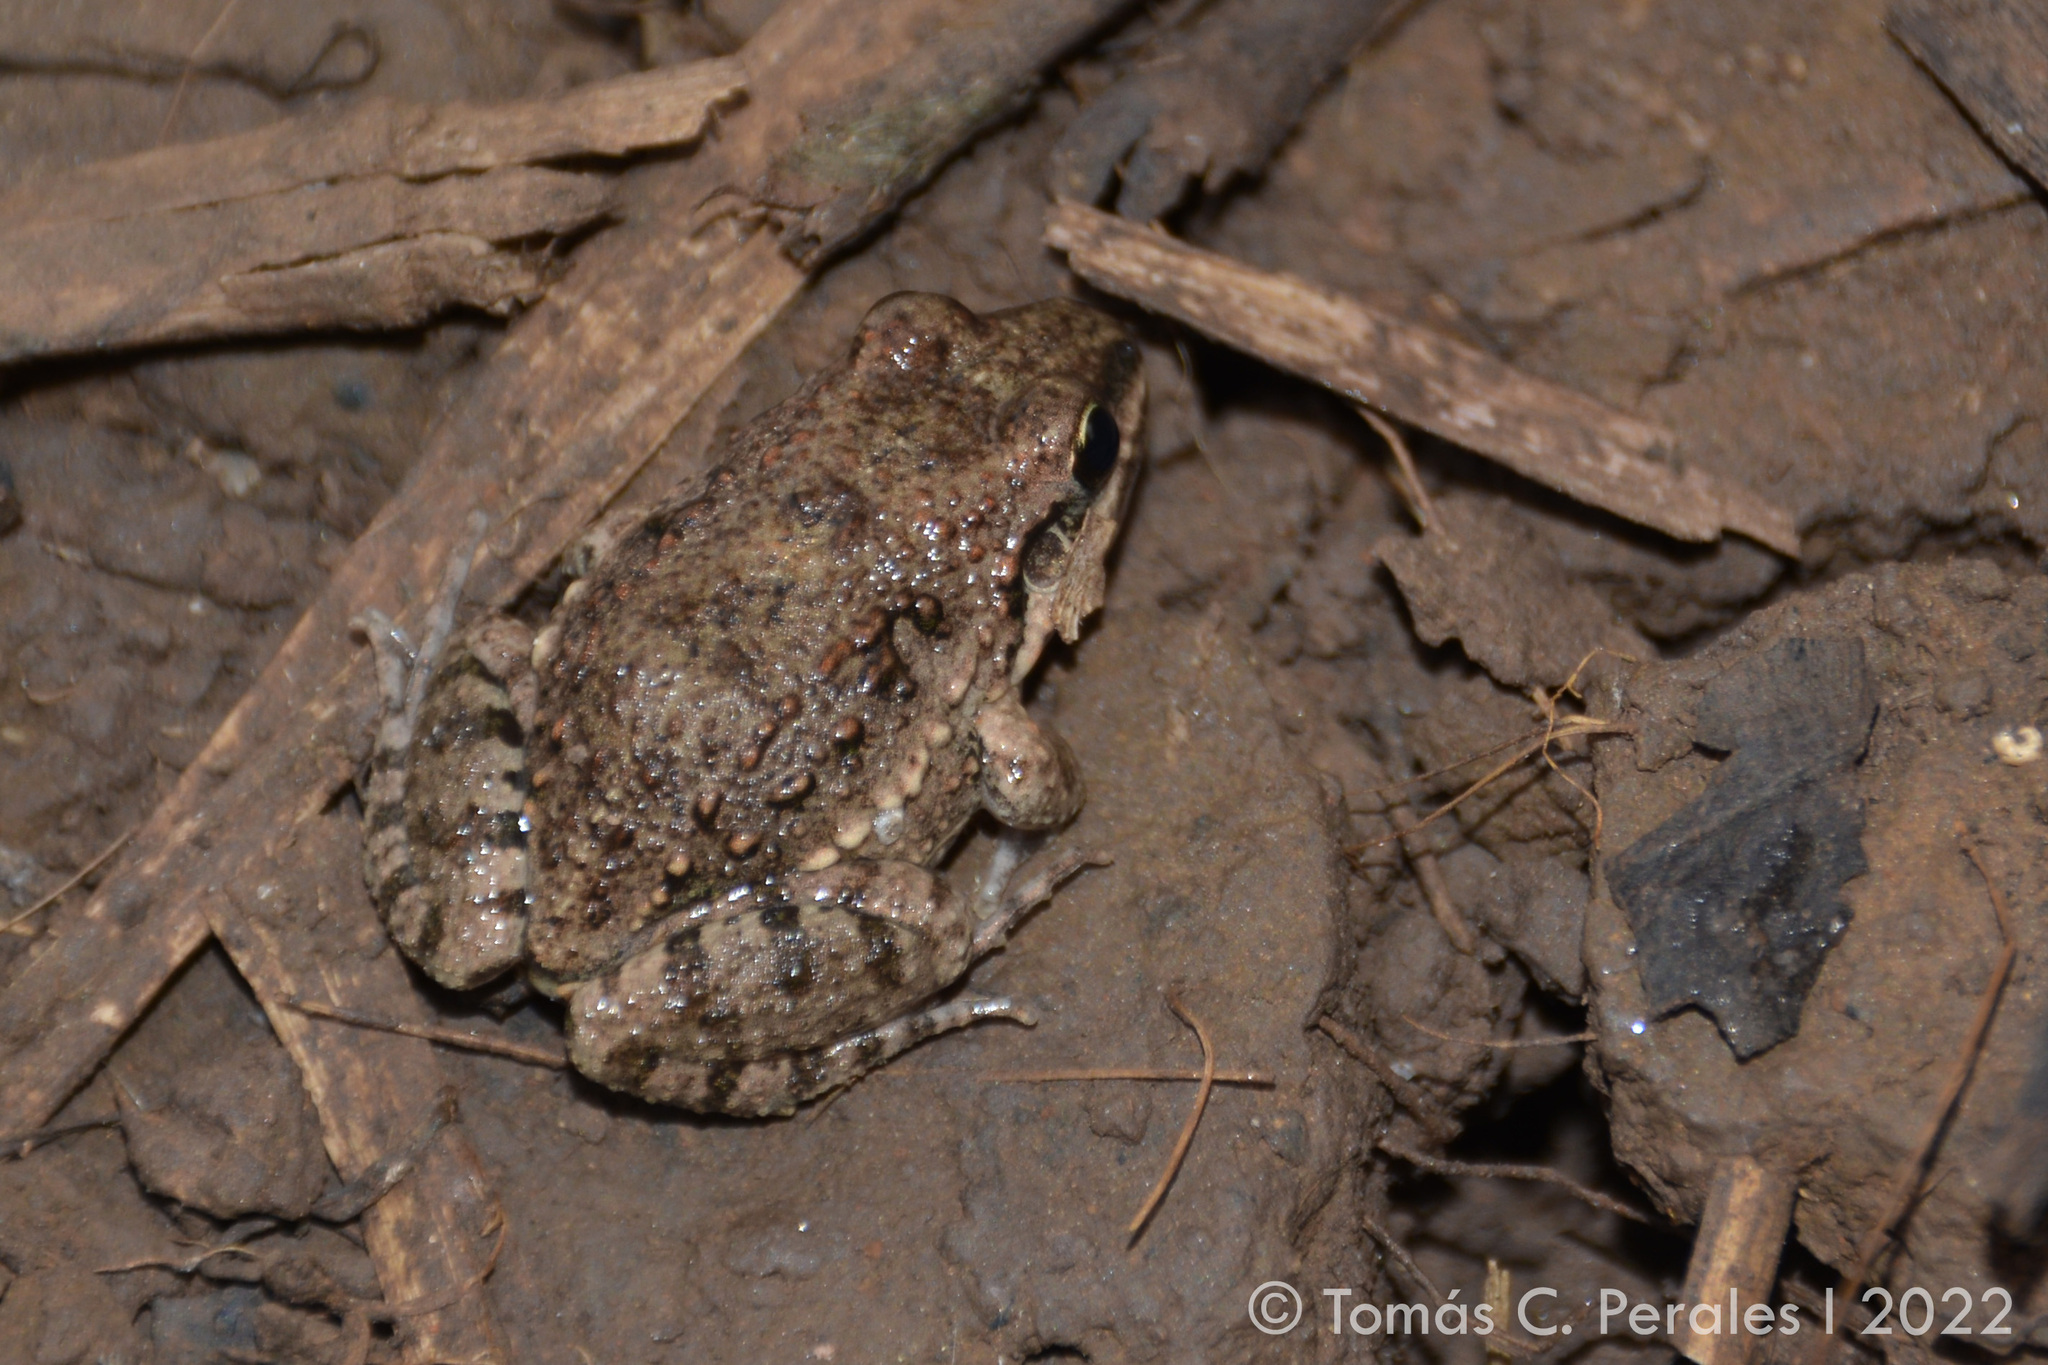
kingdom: Animalia
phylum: Chordata
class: Amphibia
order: Anura
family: Leptodactylidae
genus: Leptodactylus
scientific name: Leptodactylus latinasus
